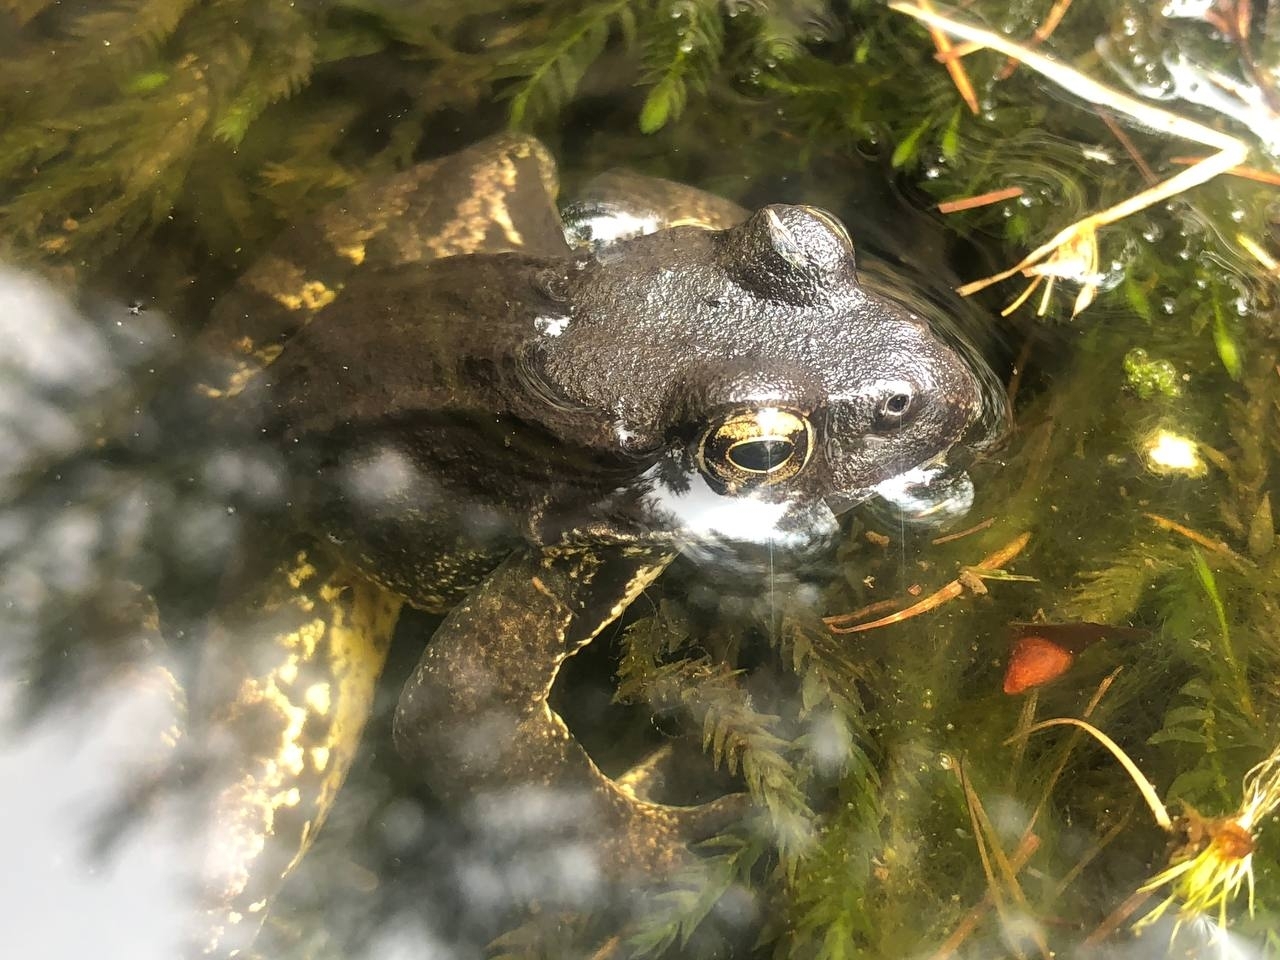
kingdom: Animalia
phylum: Chordata
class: Amphibia
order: Anura
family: Ranidae
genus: Rana
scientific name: Rana temporaria
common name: Common frog
